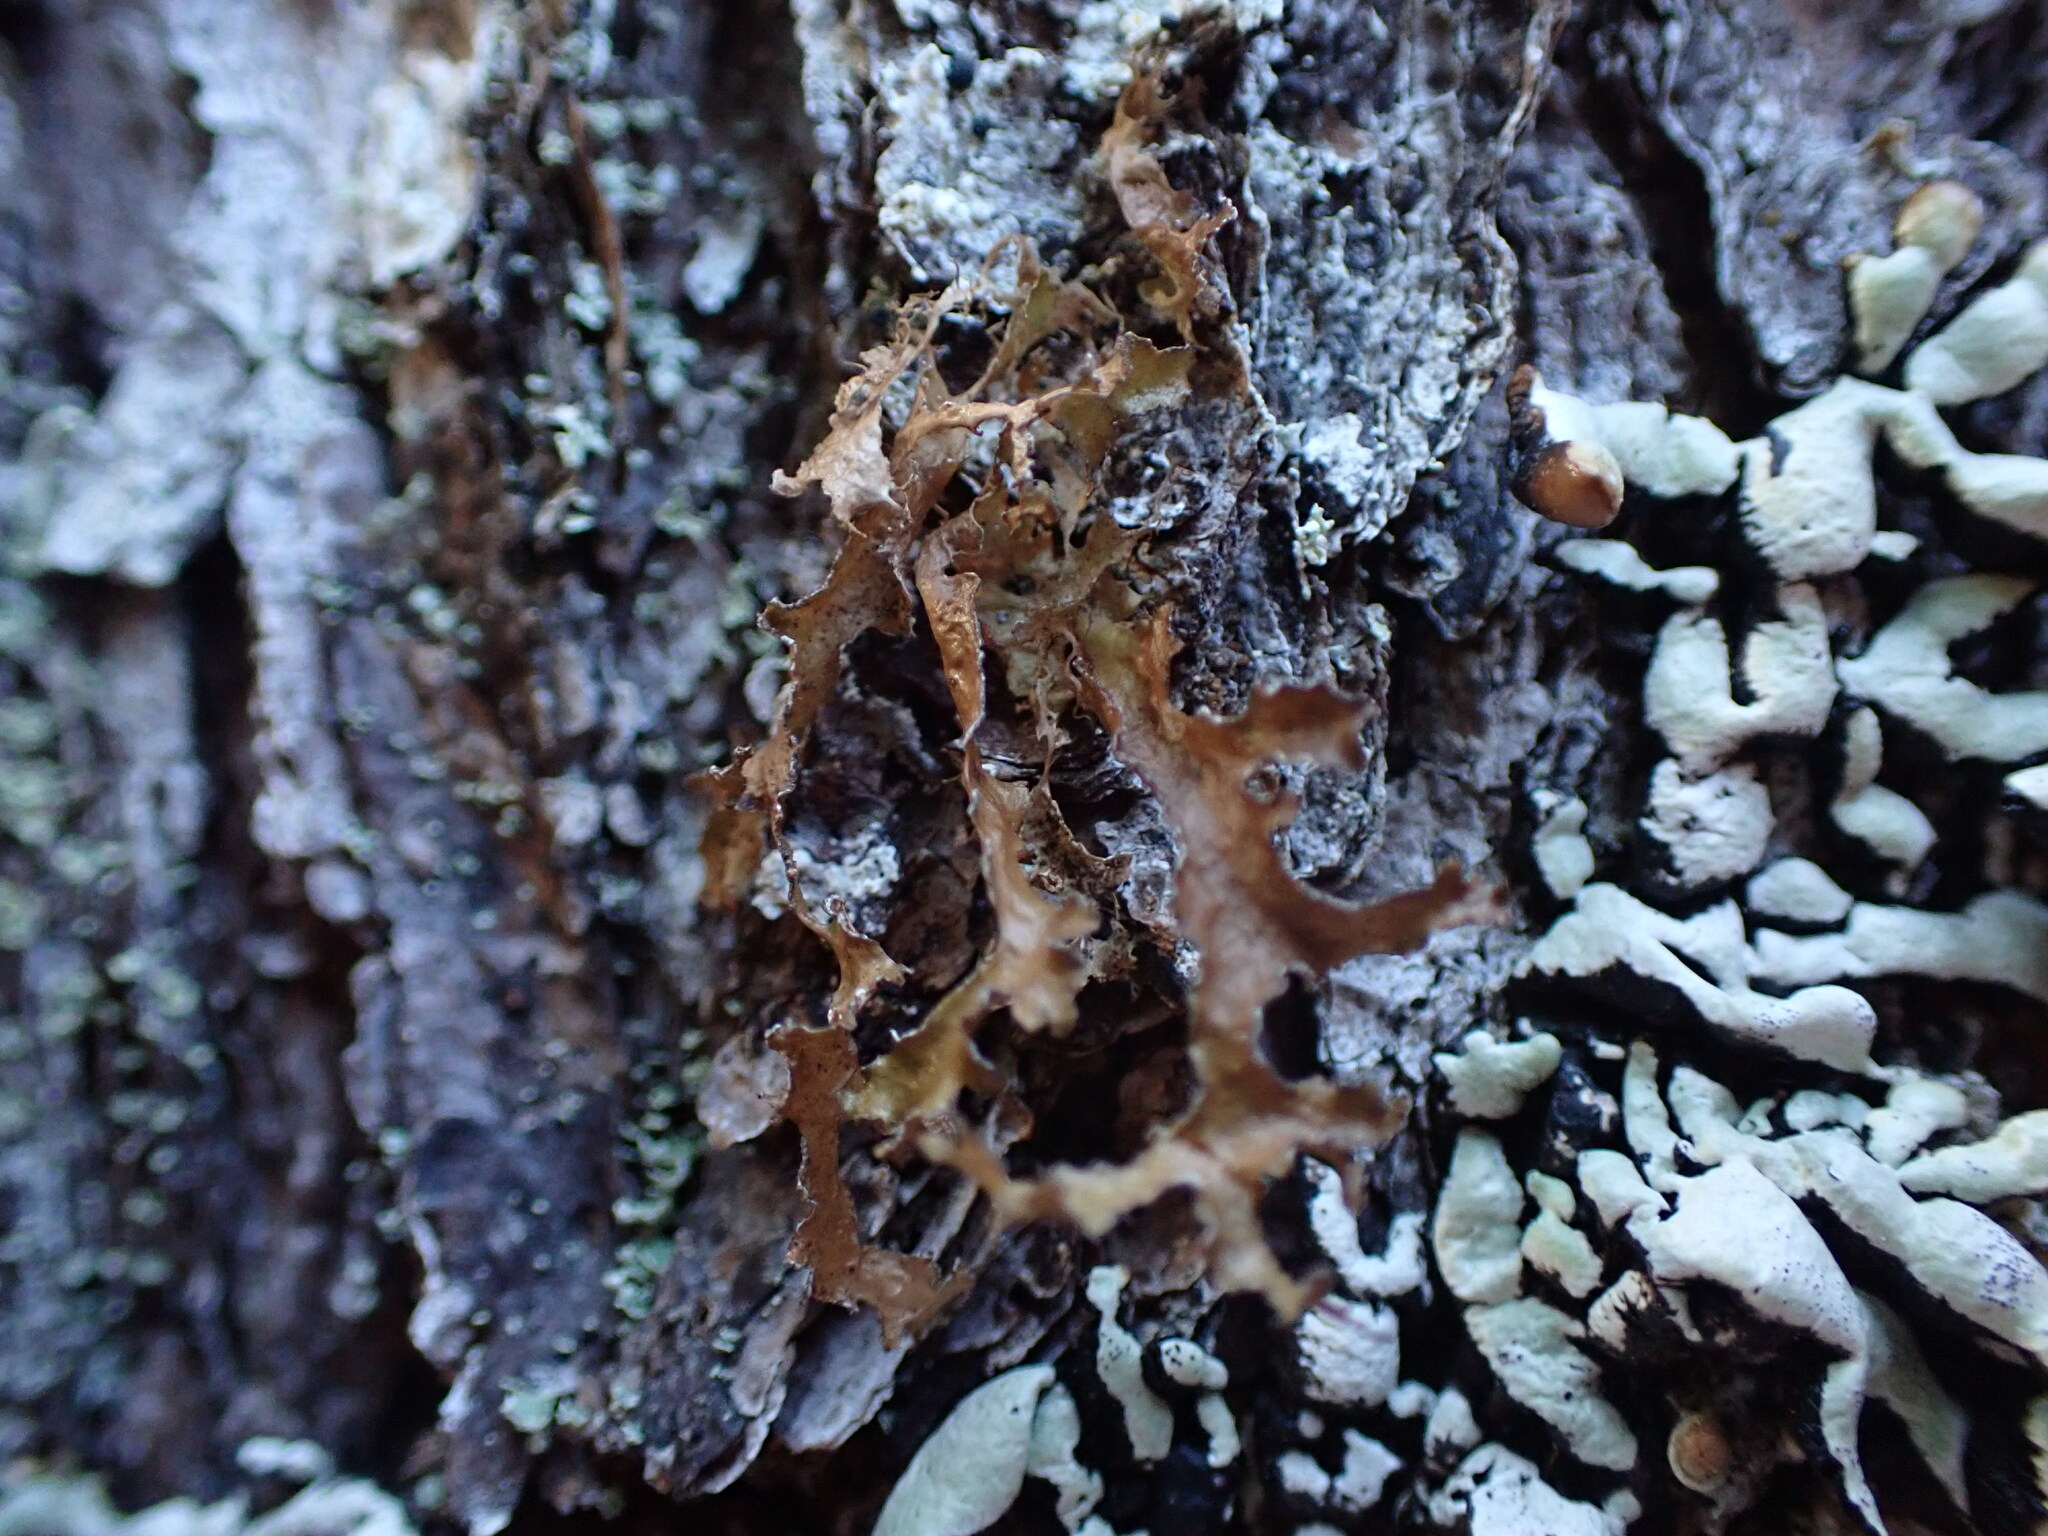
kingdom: Fungi
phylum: Ascomycota
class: Lecanoromycetes
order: Lecanorales
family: Parmeliaceae
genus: Nephromopsis
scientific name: Nephromopsis chlorophylla
